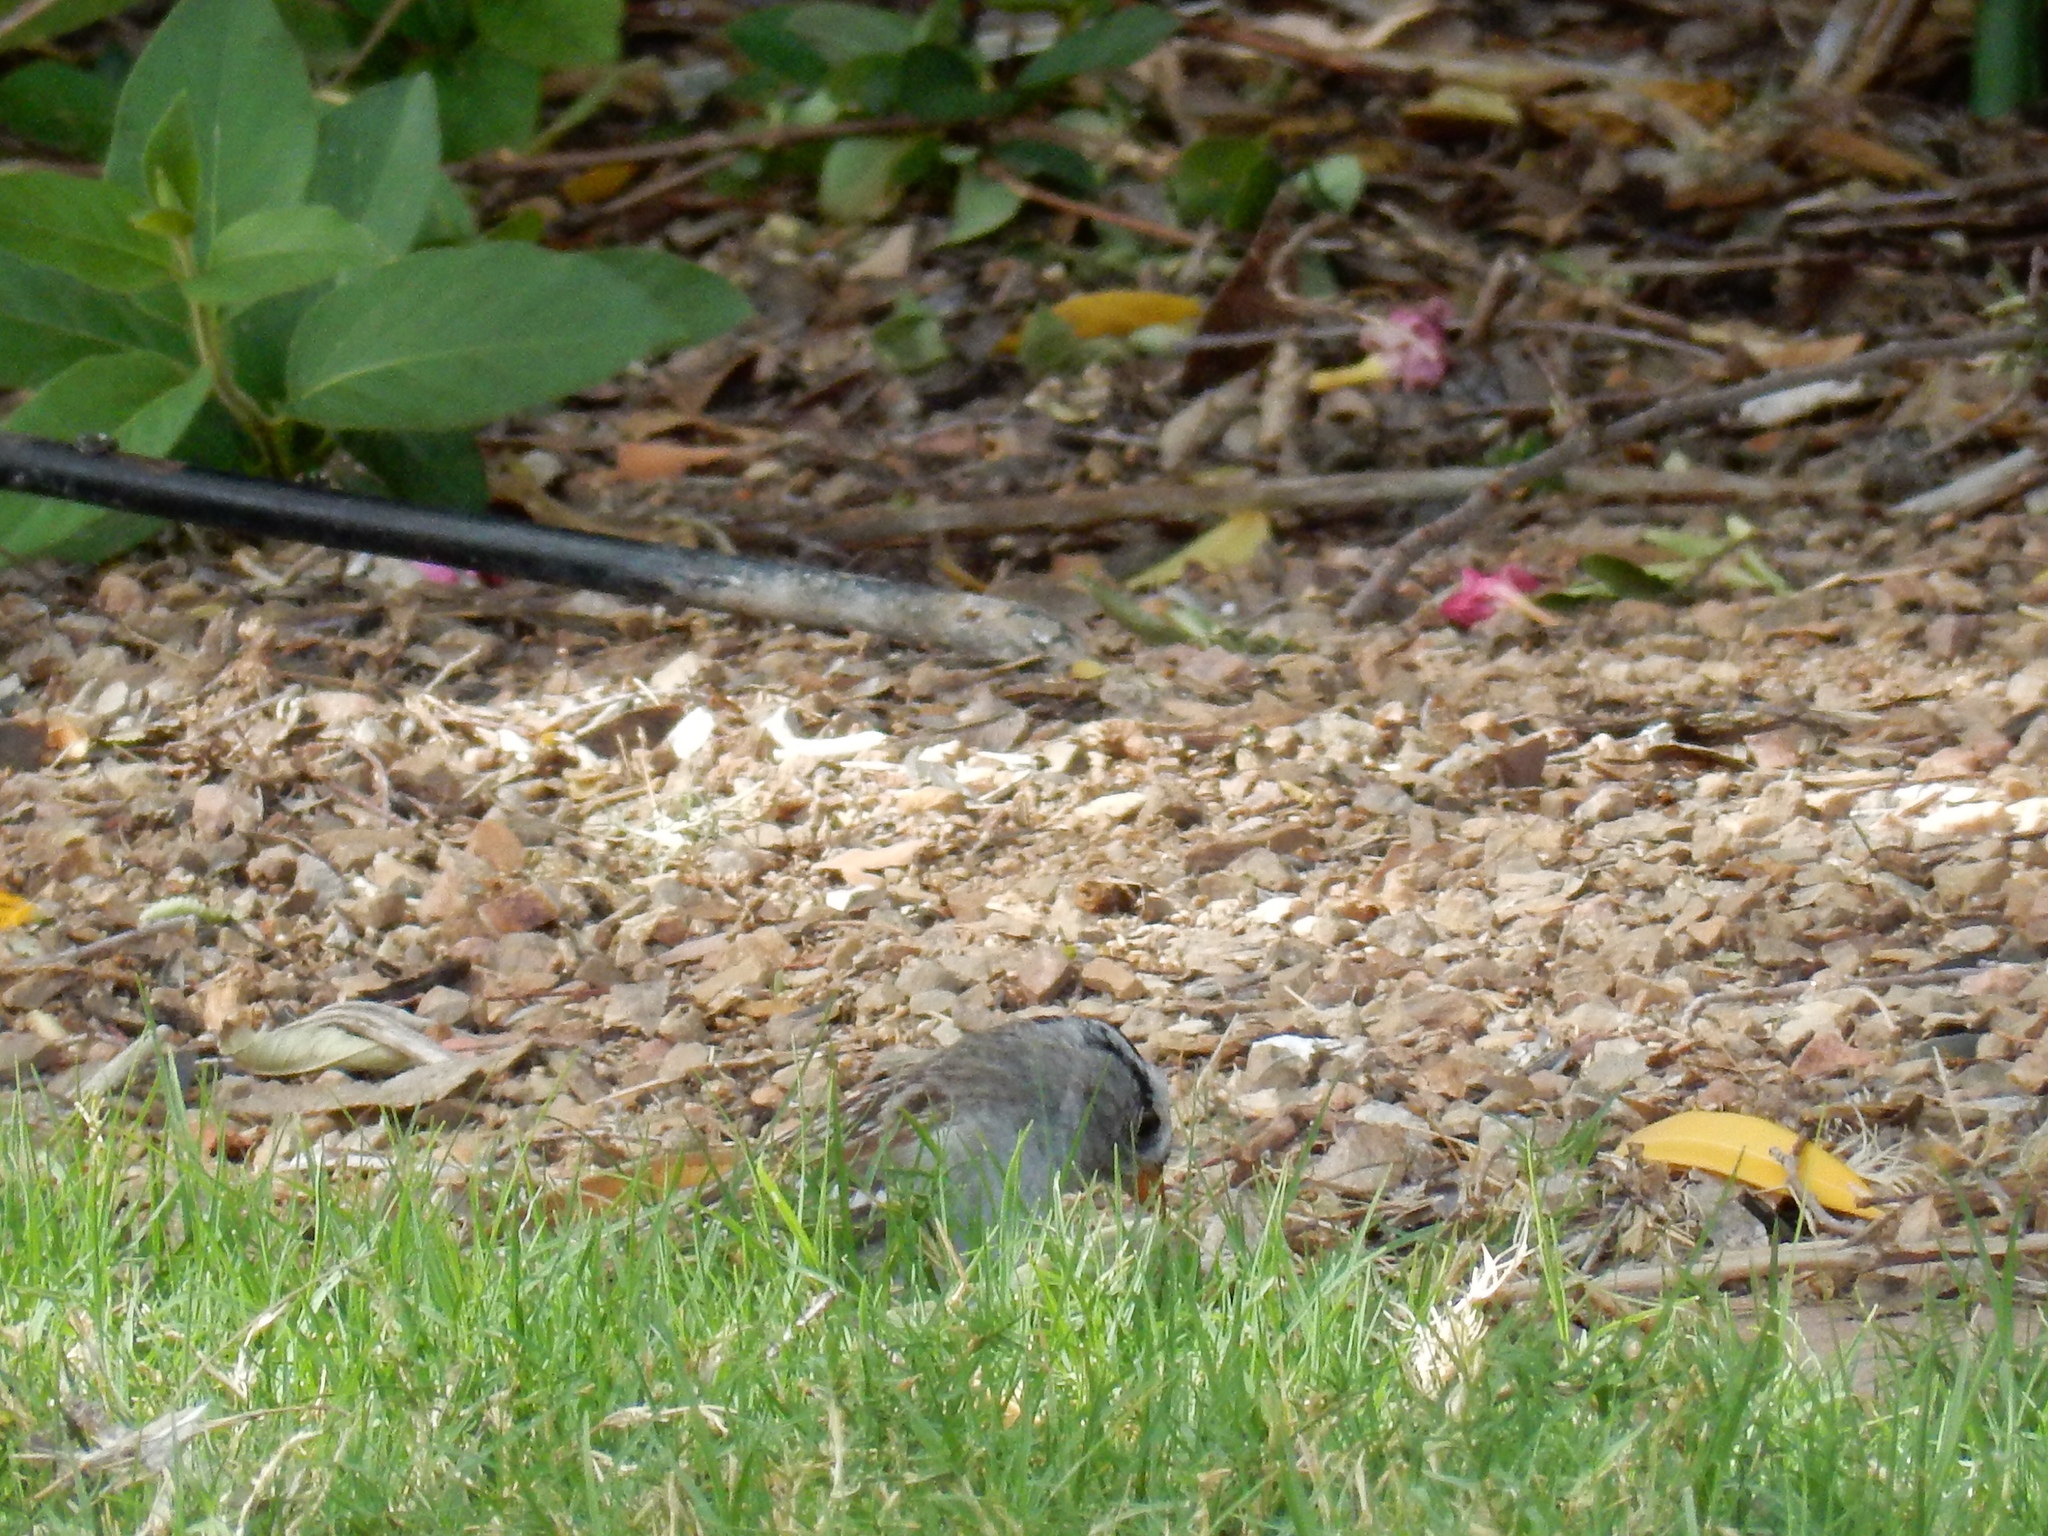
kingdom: Animalia
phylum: Chordata
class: Aves
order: Passeriformes
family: Passerellidae
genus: Zonotrichia
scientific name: Zonotrichia leucophrys
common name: White-crowned sparrow
